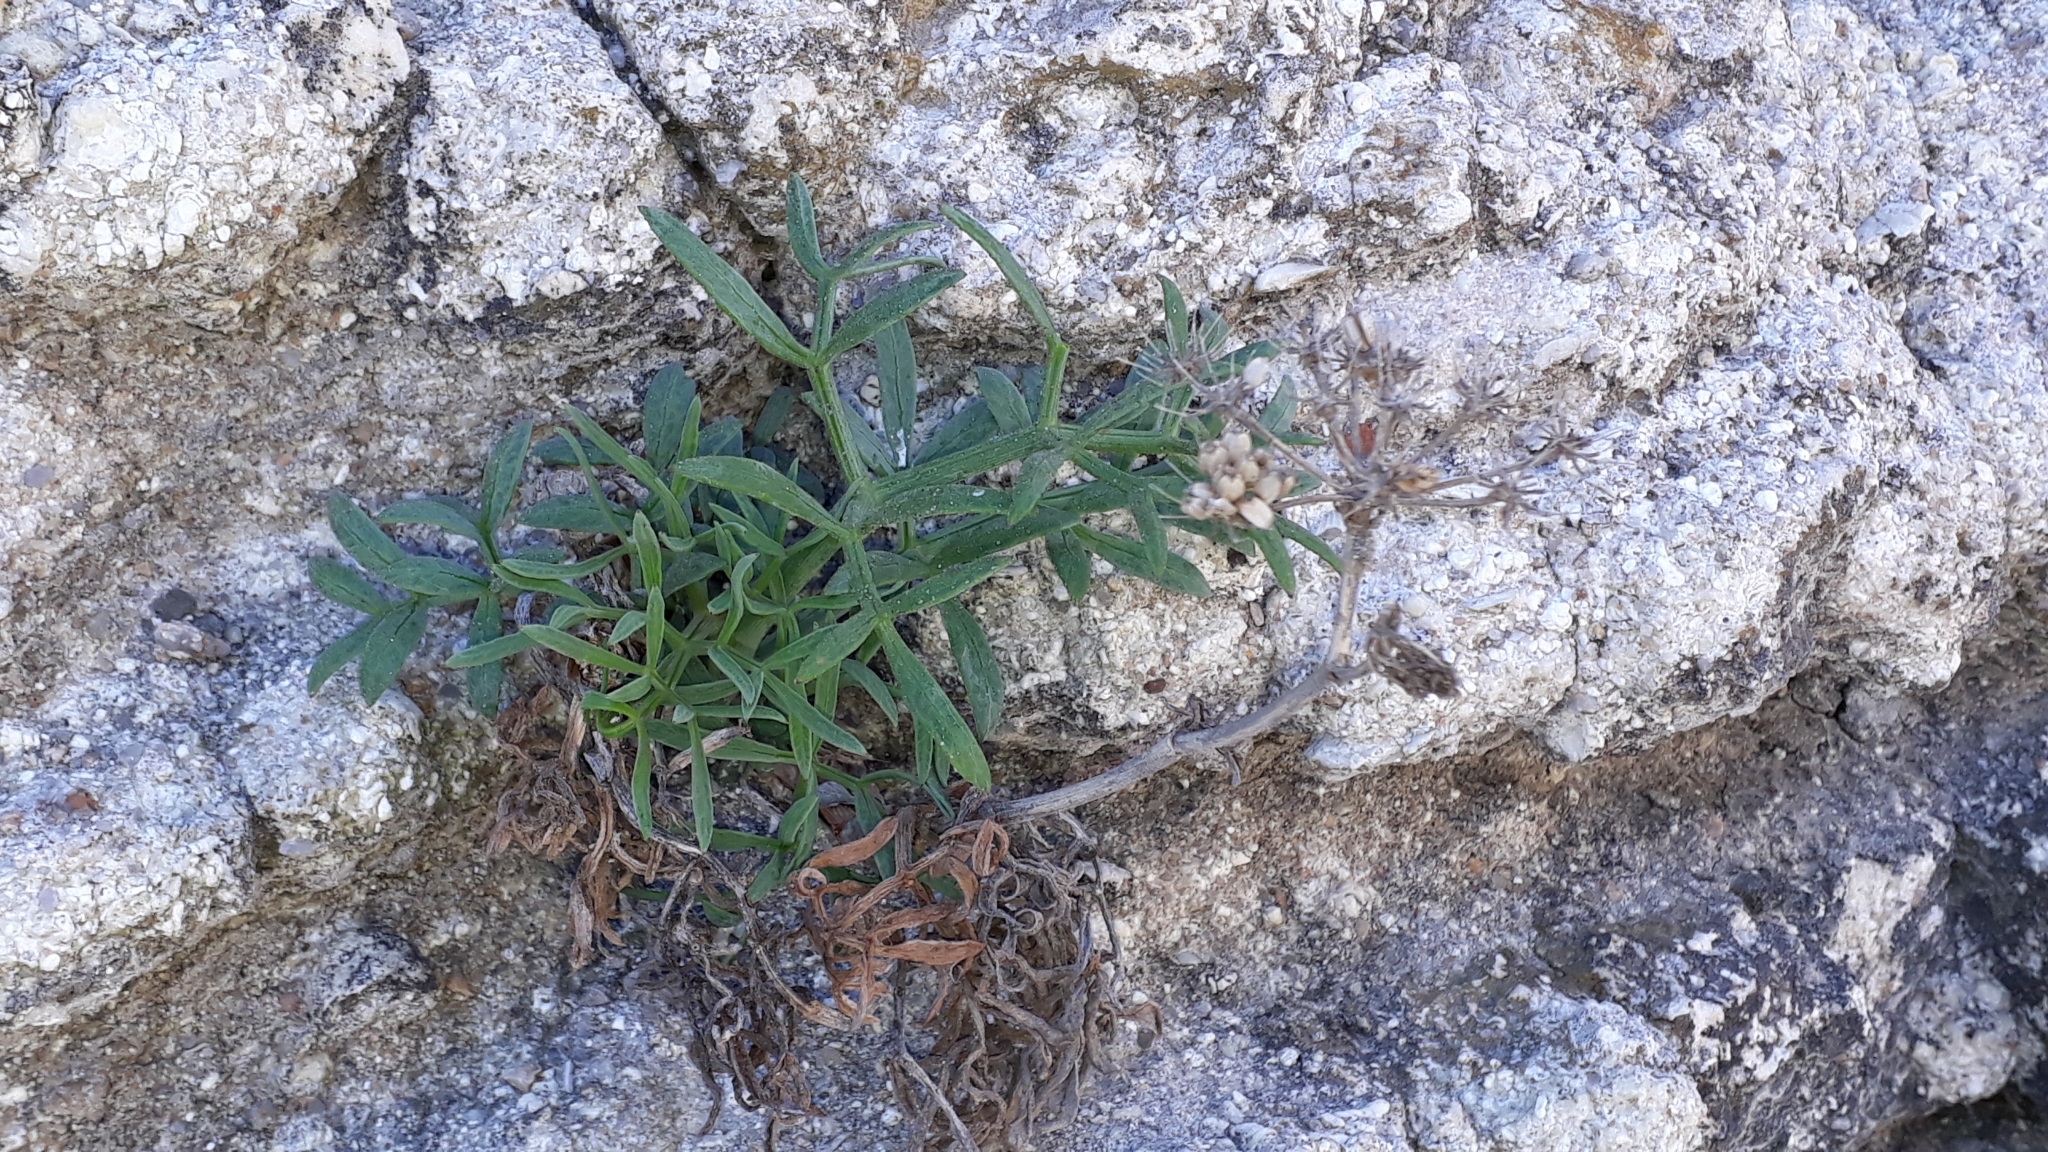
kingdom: Plantae
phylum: Tracheophyta
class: Magnoliopsida
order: Apiales
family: Apiaceae
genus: Crithmum
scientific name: Crithmum maritimum
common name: Rock samphire
